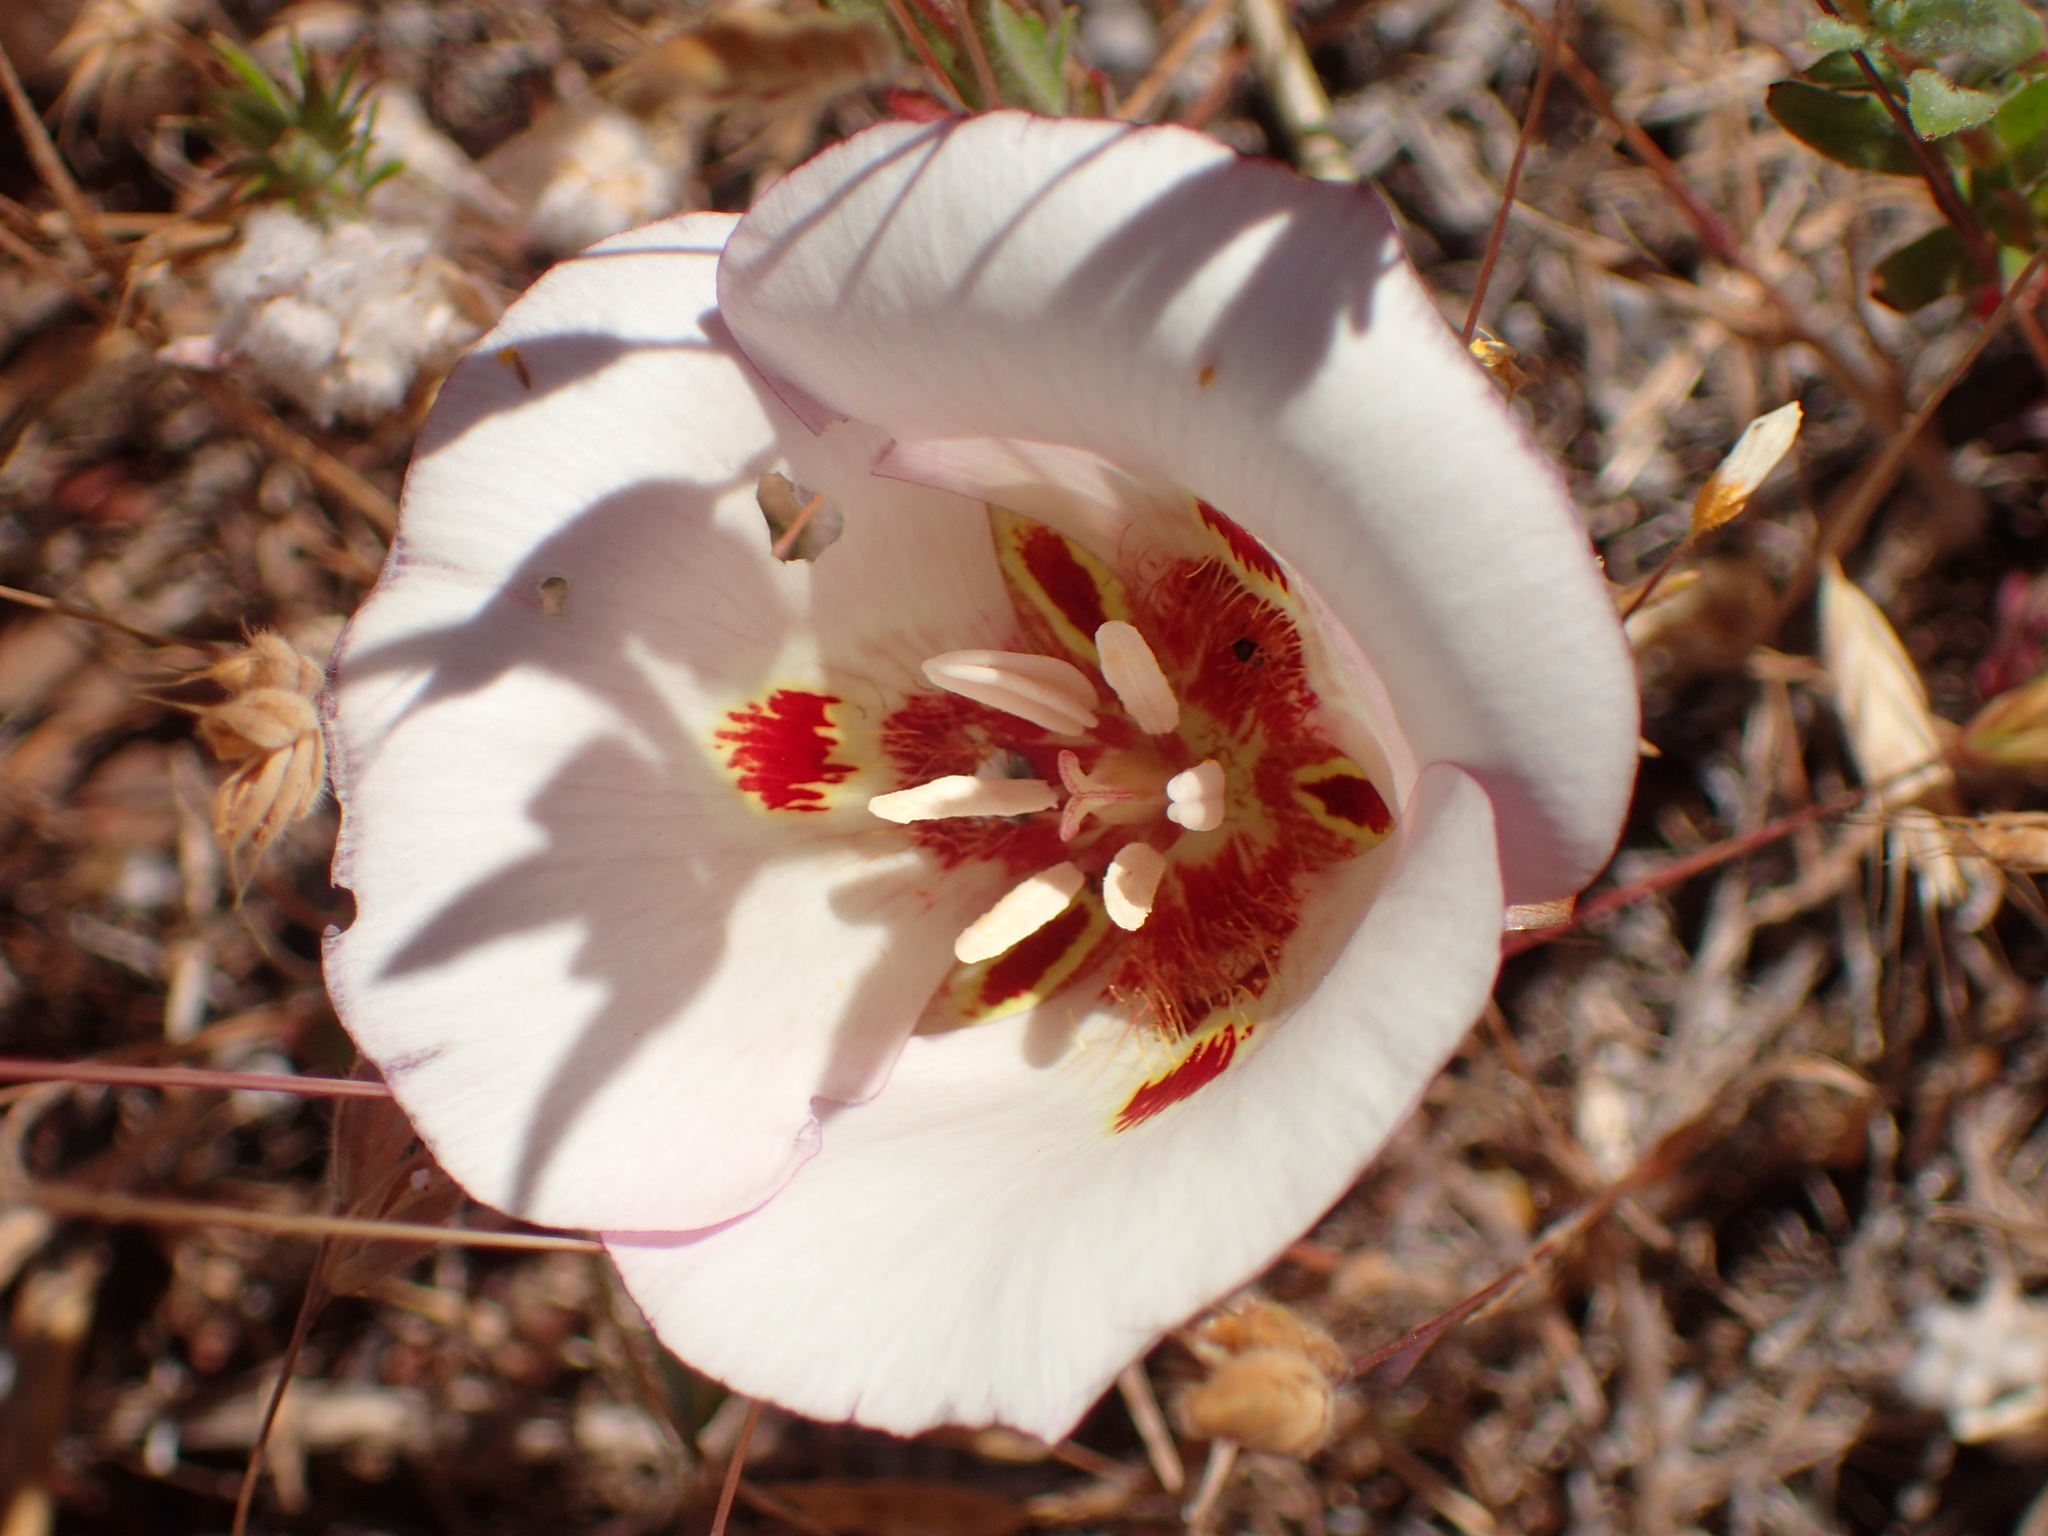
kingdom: Plantae
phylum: Tracheophyta
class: Liliopsida
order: Liliales
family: Liliaceae
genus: Calochortus
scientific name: Calochortus venustus
